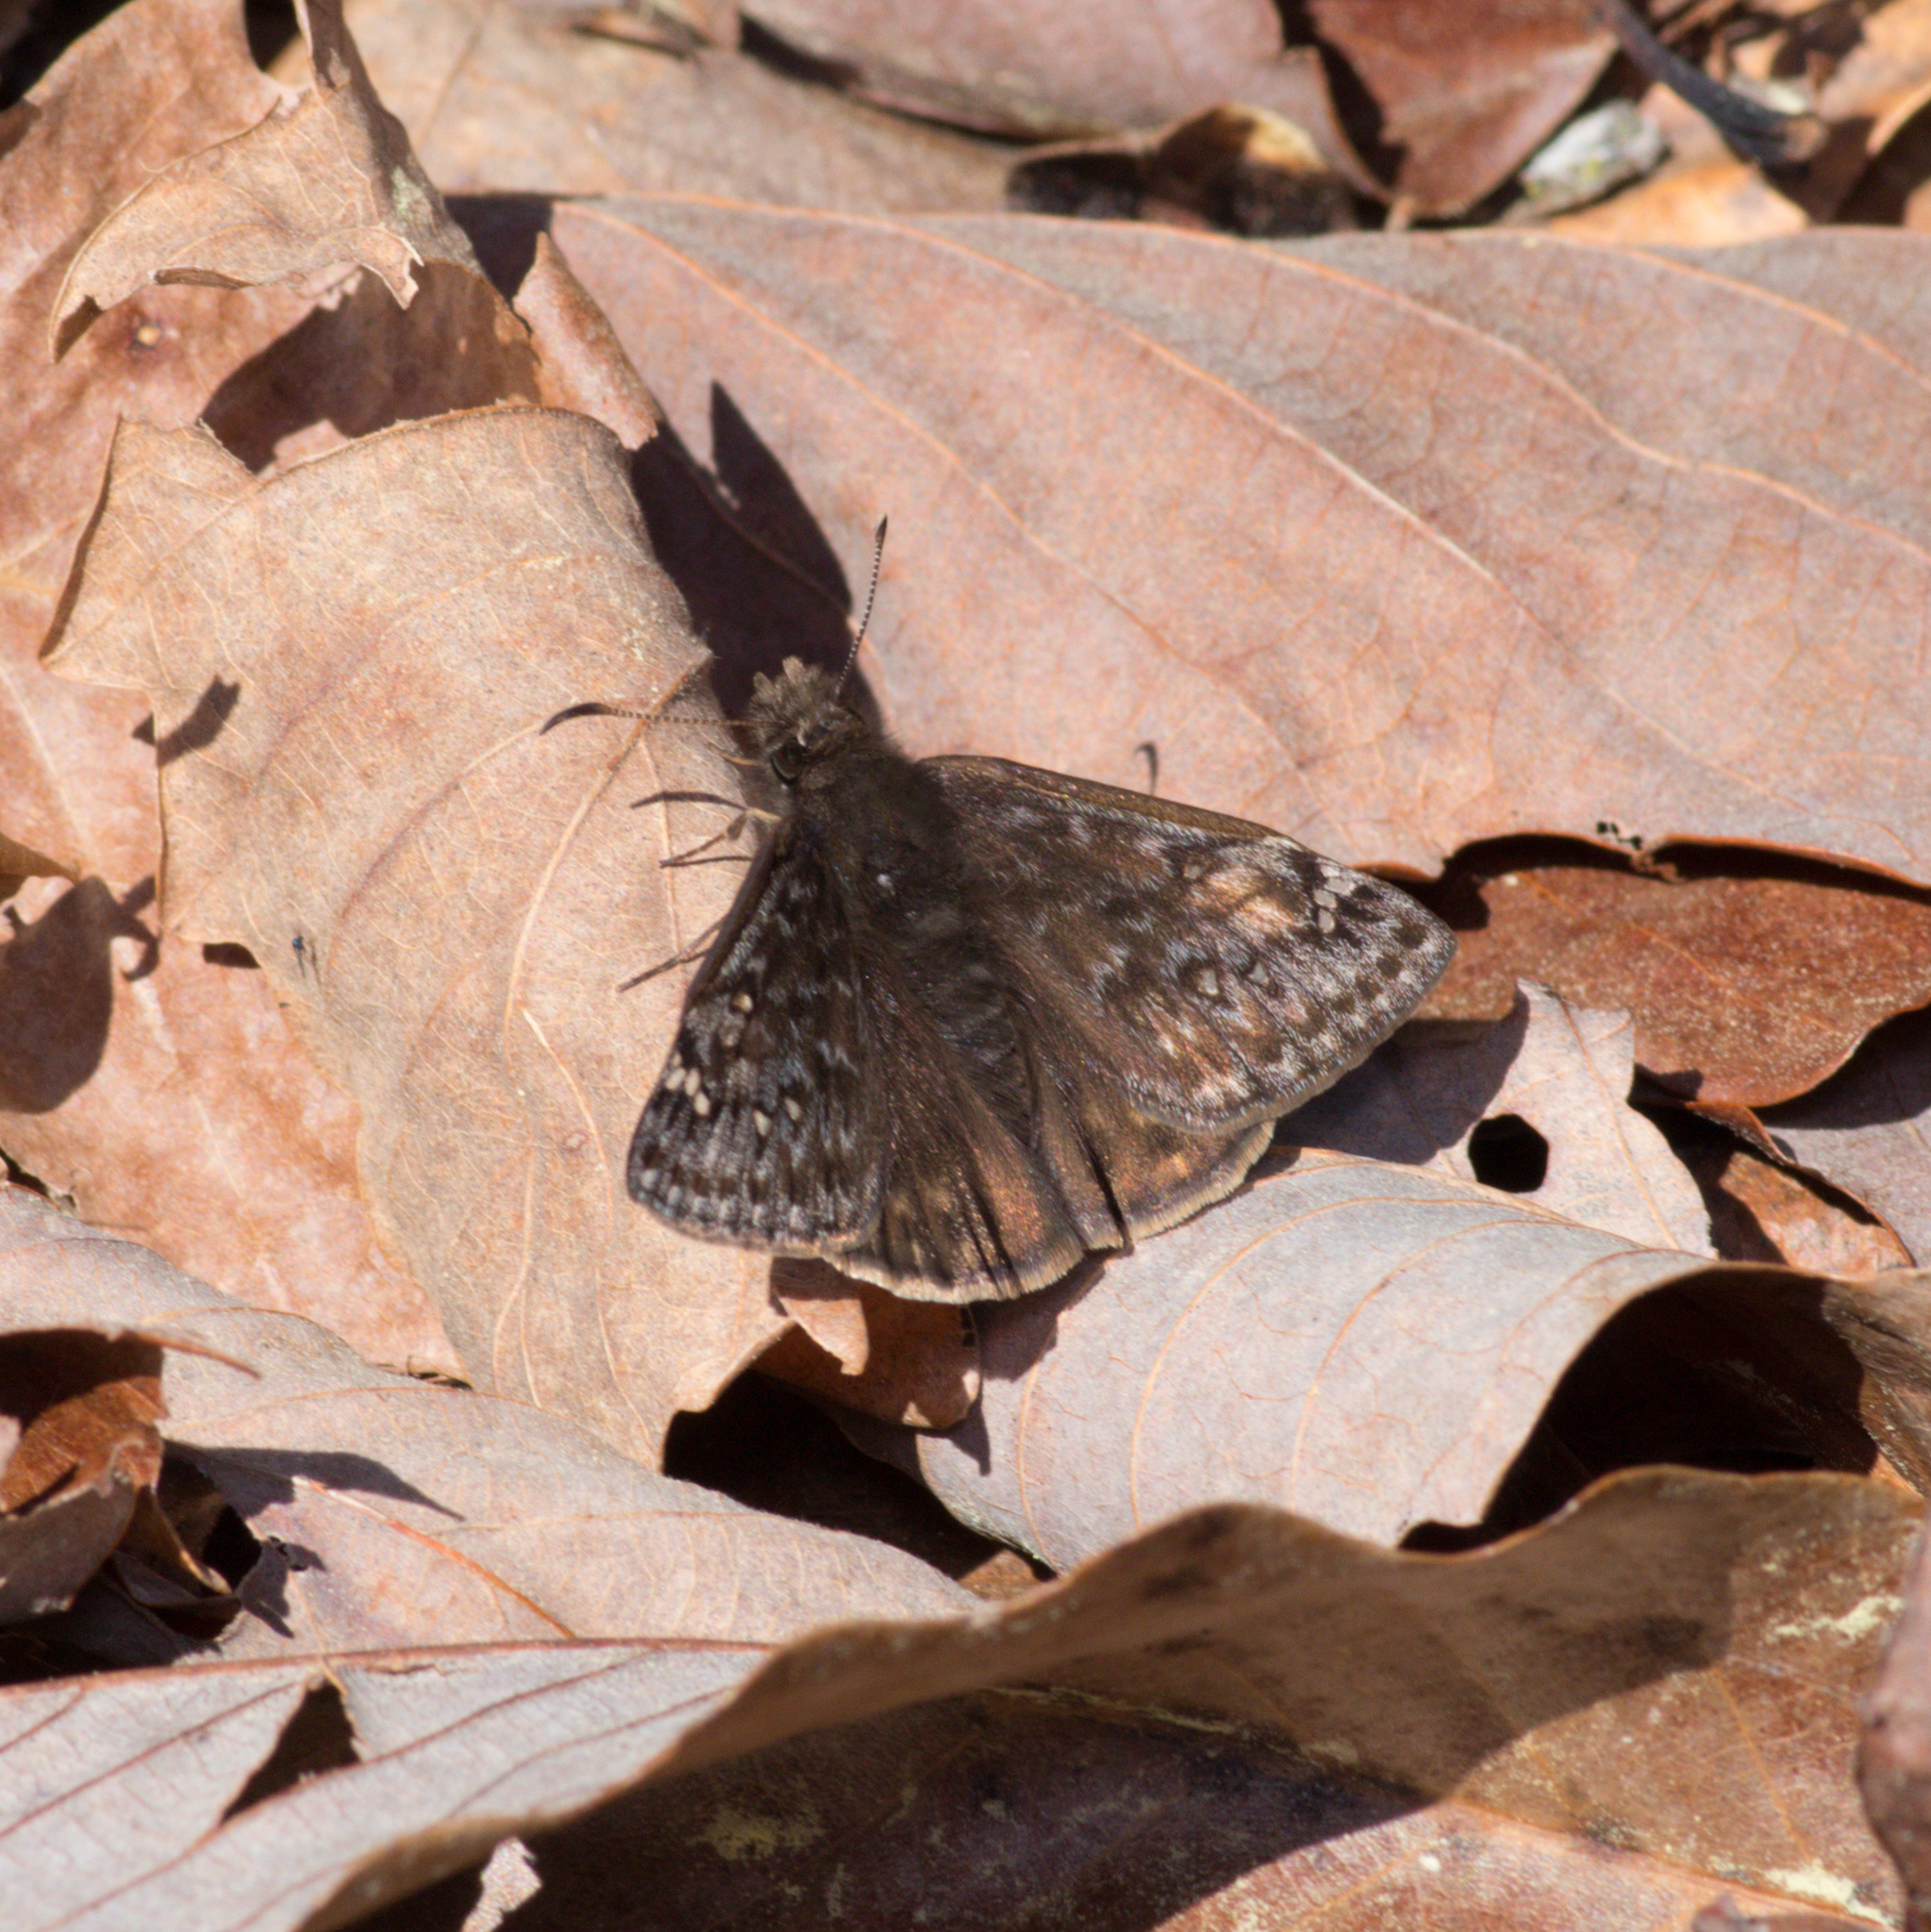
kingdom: Animalia
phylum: Arthropoda
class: Insecta
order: Lepidoptera
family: Hesperiidae
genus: Erynnis
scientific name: Erynnis juvenalis
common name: Juvenal's duskywing
